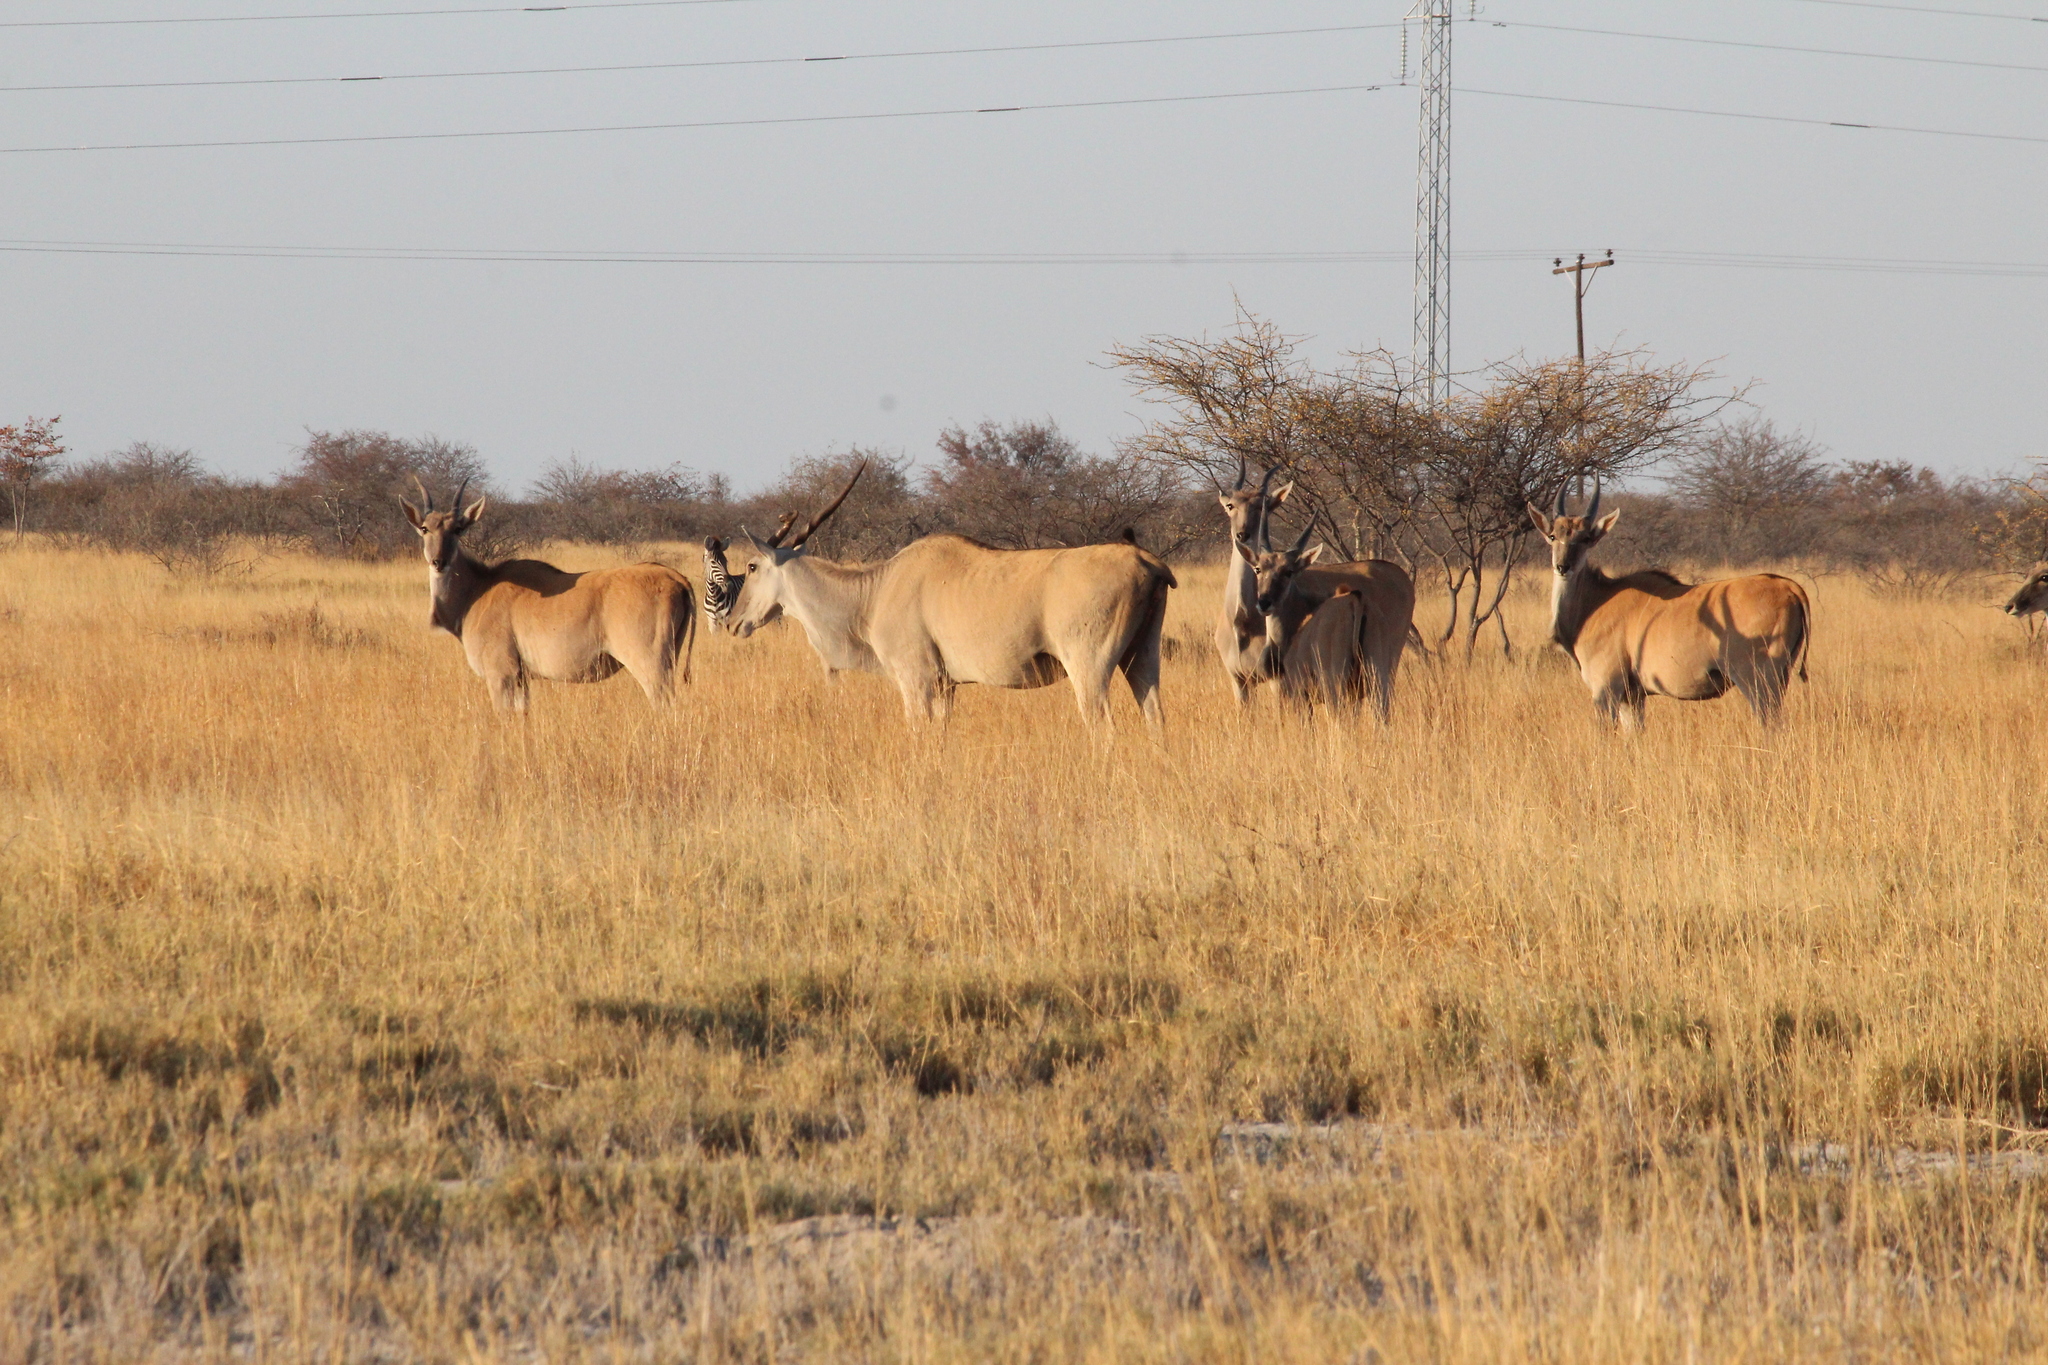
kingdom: Animalia
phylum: Chordata
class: Mammalia
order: Artiodactyla
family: Bovidae
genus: Taurotragus
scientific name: Taurotragus oryx
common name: Common eland
